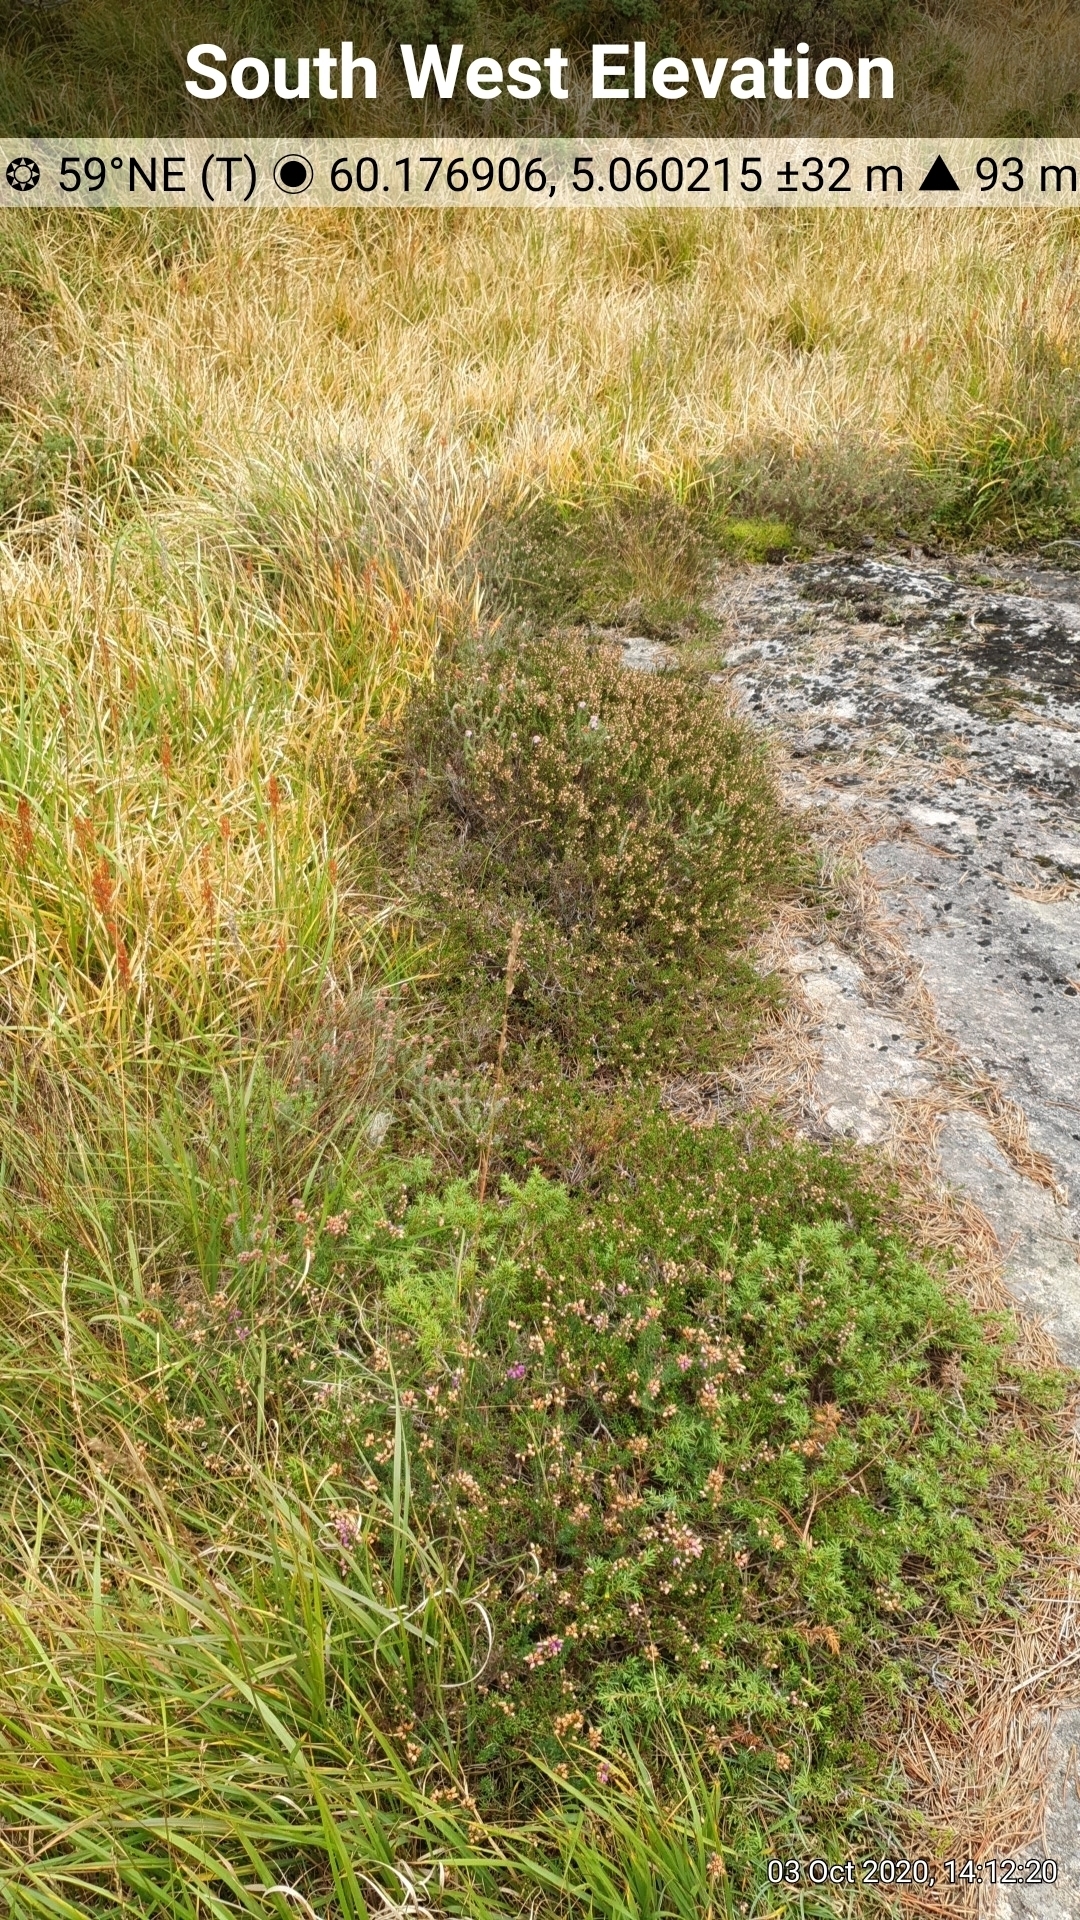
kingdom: Plantae
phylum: Tracheophyta
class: Magnoliopsida
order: Ericales
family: Ericaceae
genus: Erica
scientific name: Erica tetralix
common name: Cross-leaved heath
